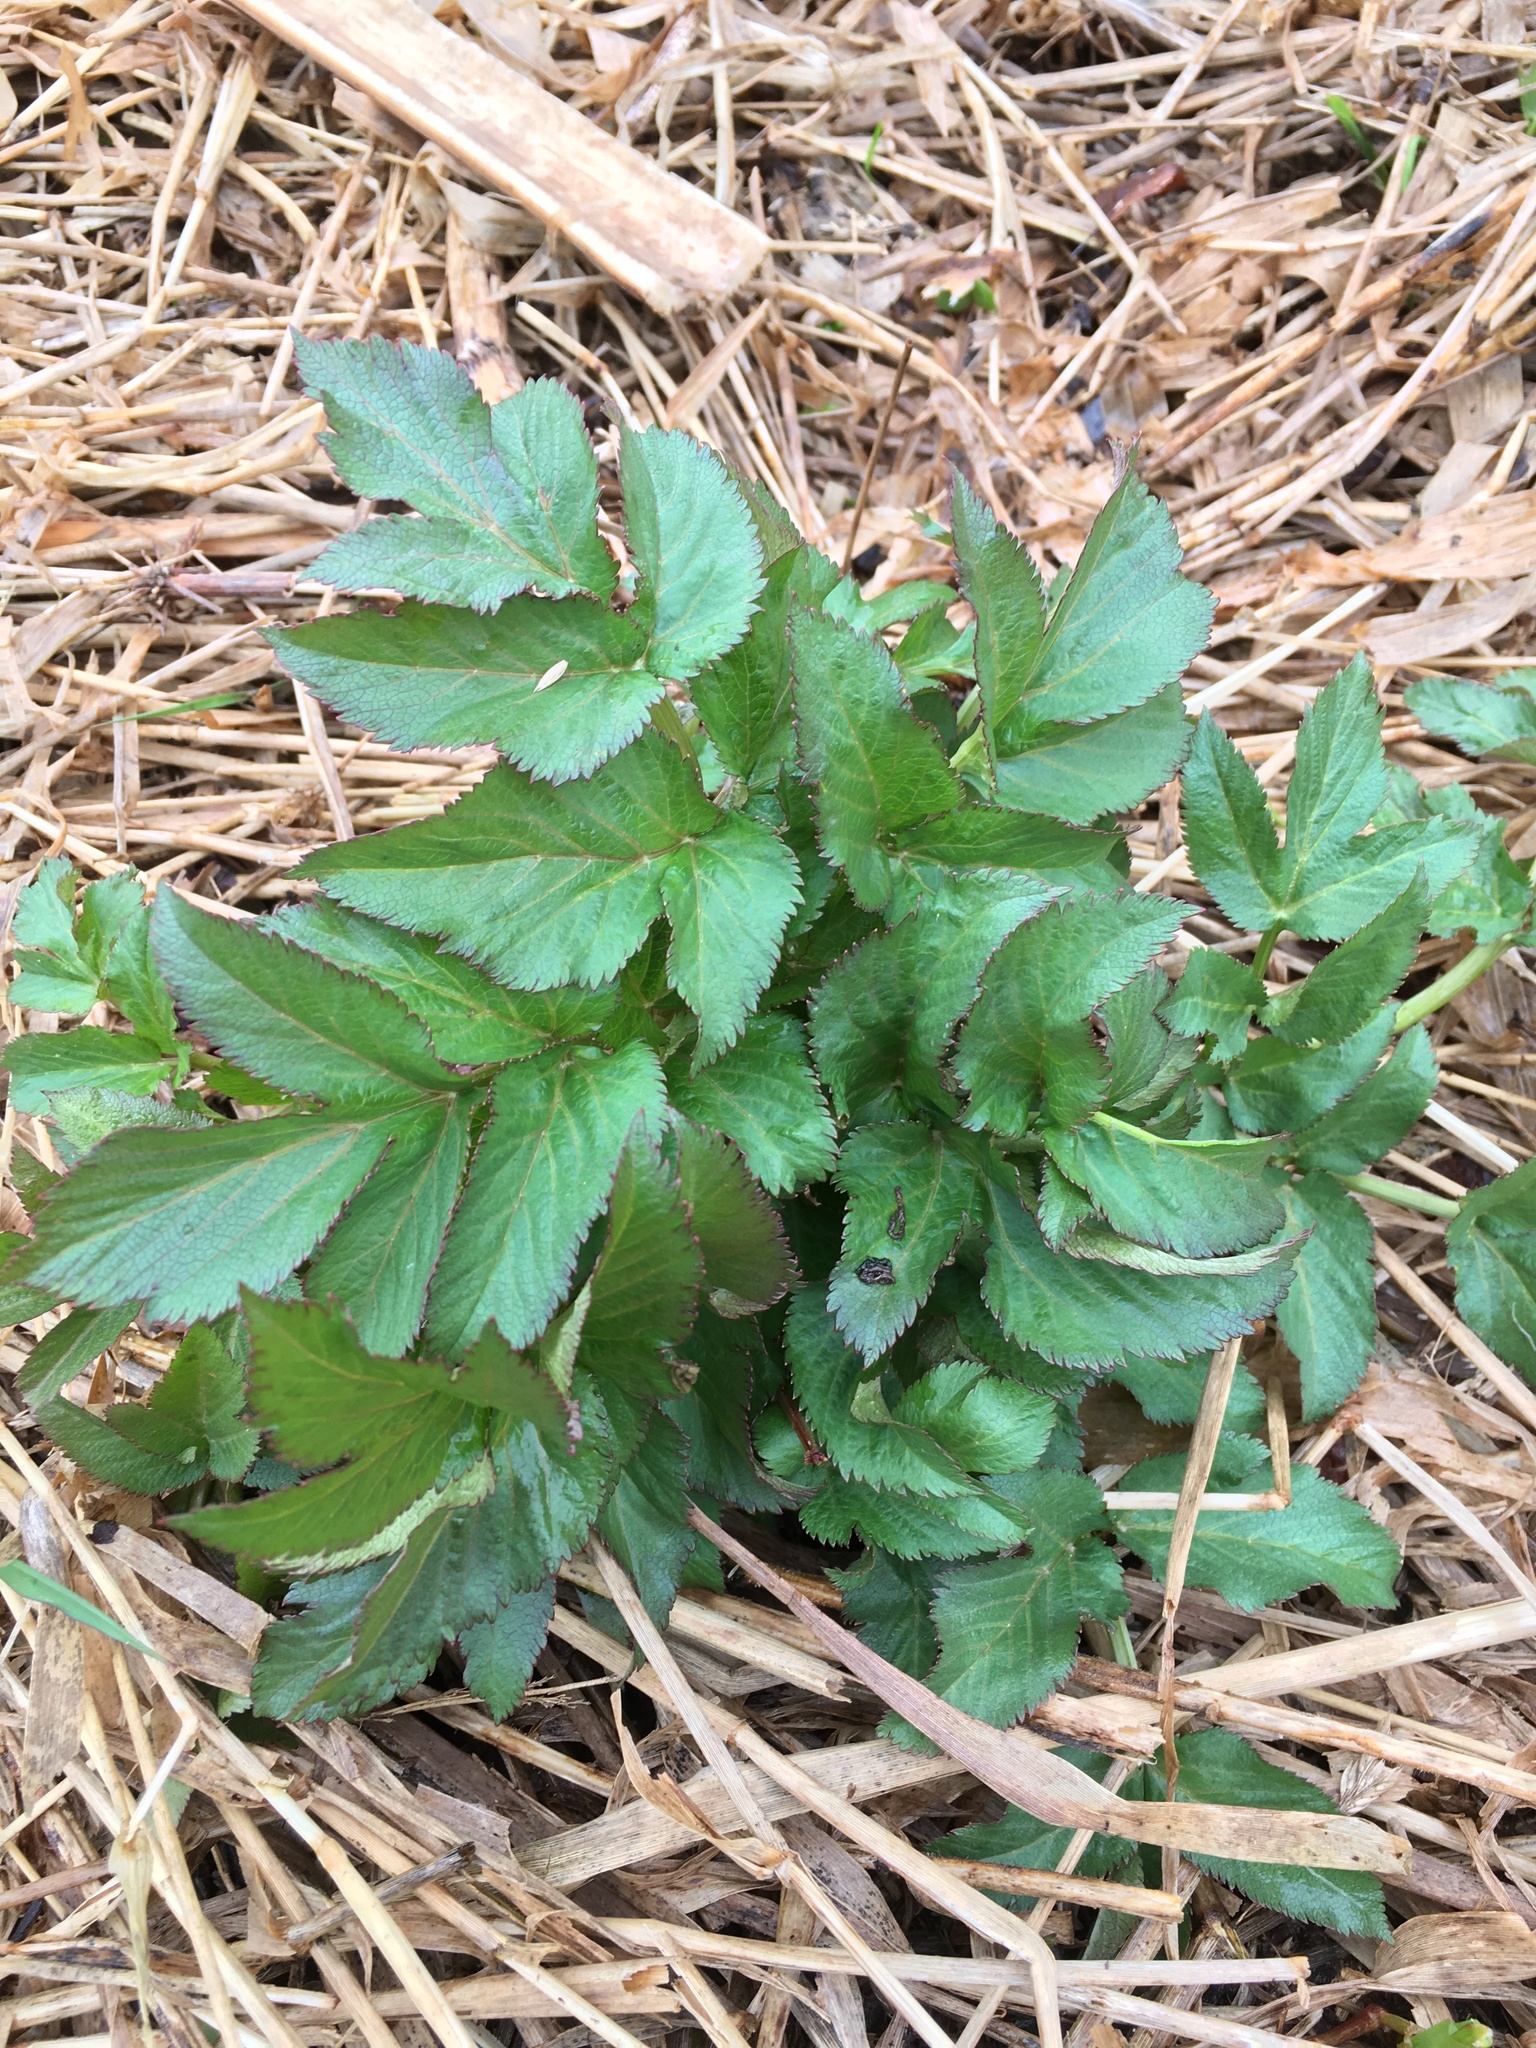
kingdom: Plantae
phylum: Tracheophyta
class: Magnoliopsida
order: Apiales
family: Apiaceae
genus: Angelica
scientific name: Angelica archangelica
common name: Garden angelica
